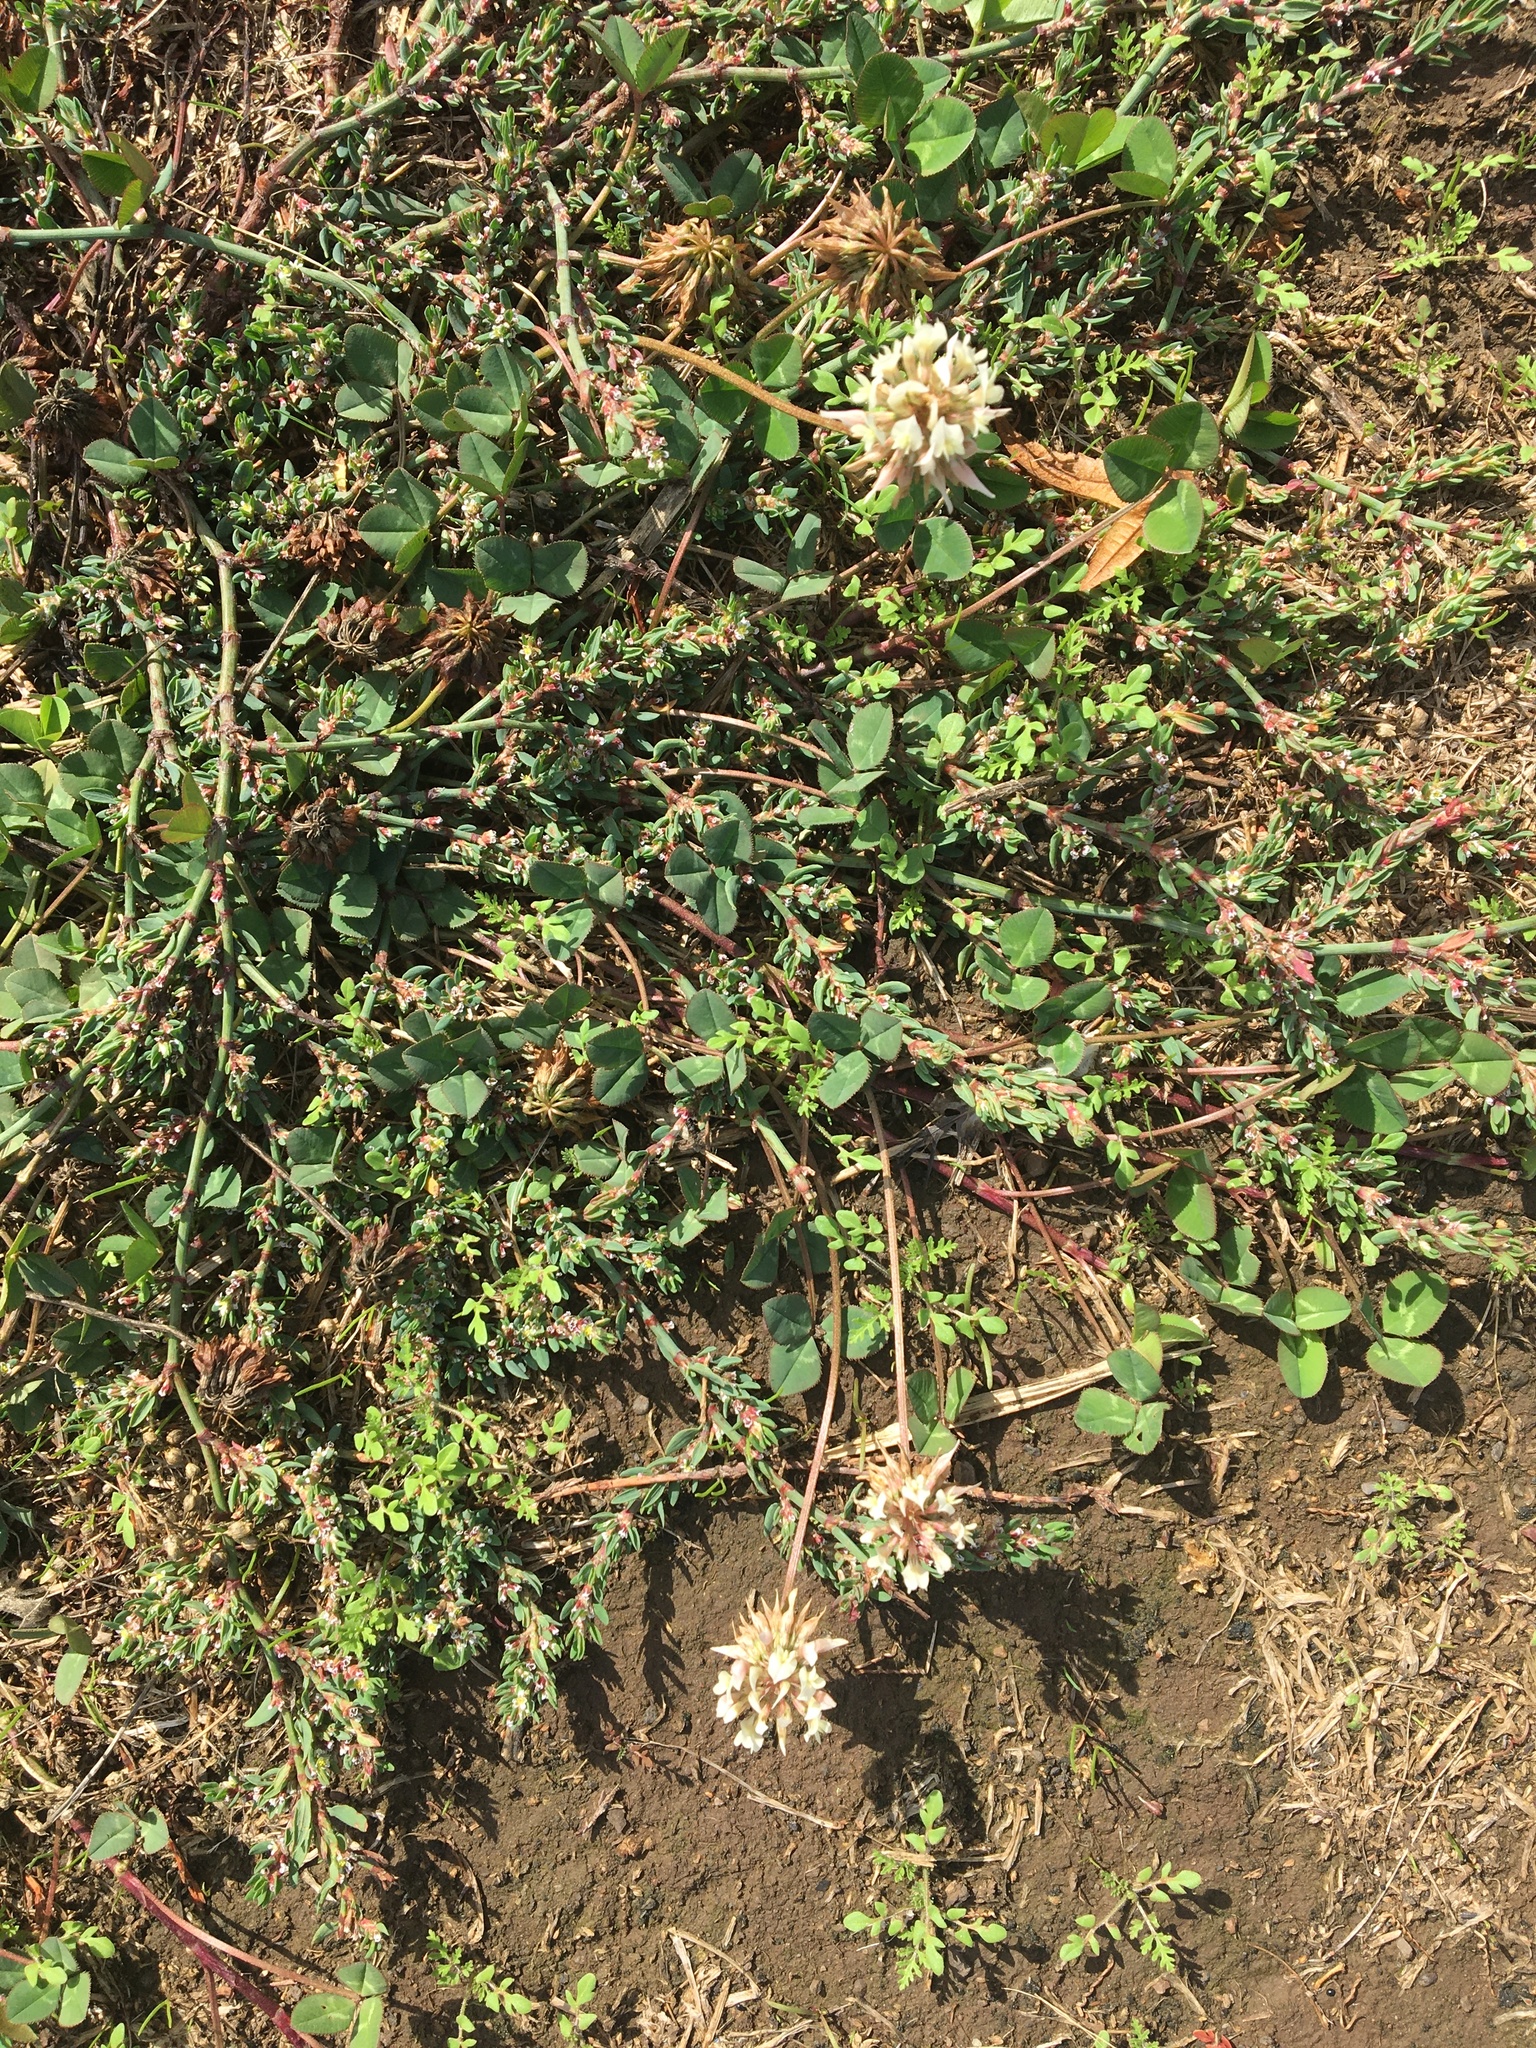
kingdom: Plantae
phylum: Tracheophyta
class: Magnoliopsida
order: Fabales
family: Fabaceae
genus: Trifolium
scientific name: Trifolium repens
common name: White clover
